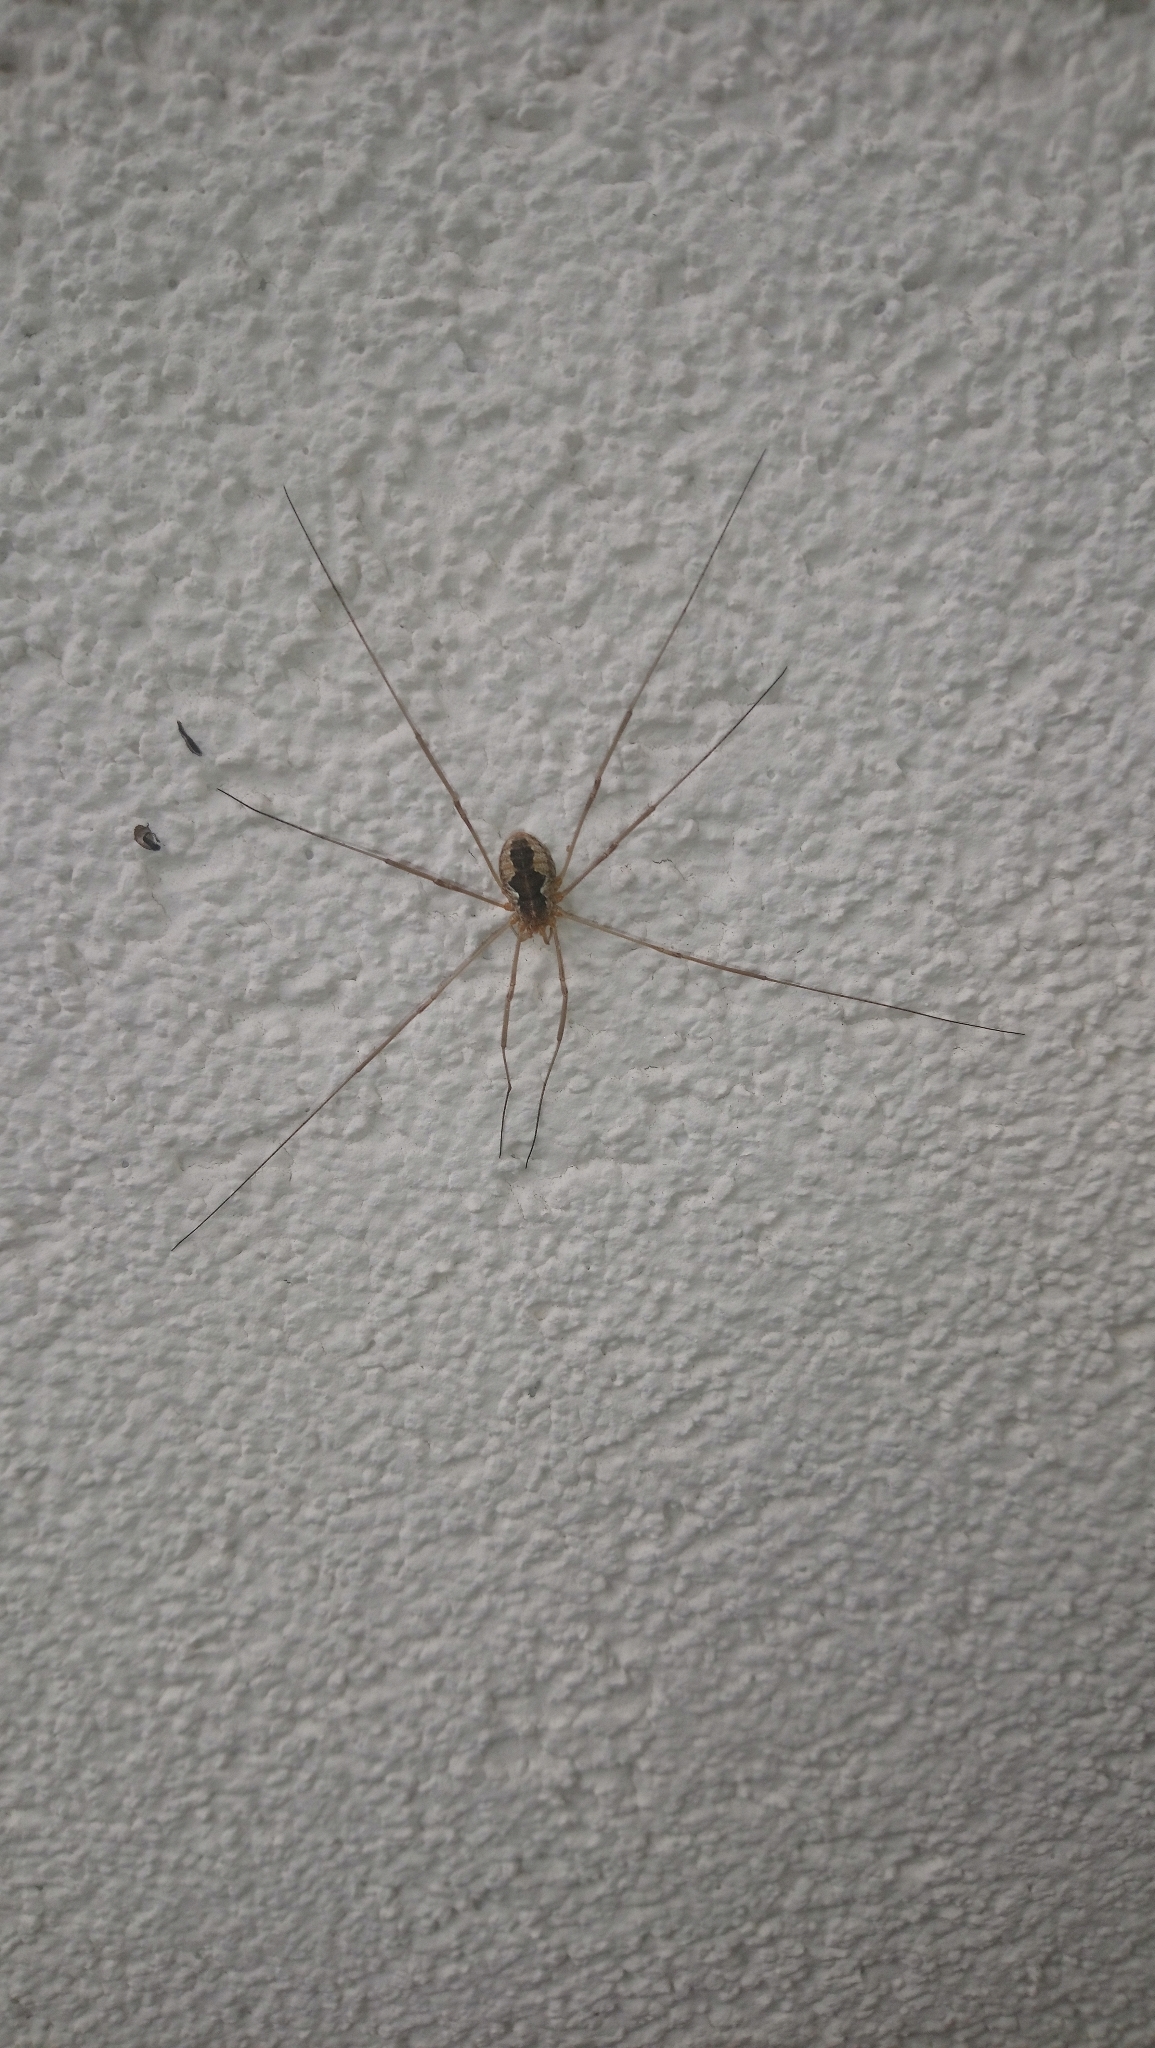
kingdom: Animalia
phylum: Arthropoda
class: Arachnida
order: Opiliones
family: Phalangiidae
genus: Phalangium
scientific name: Phalangium opilio
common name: Daddy longleg
